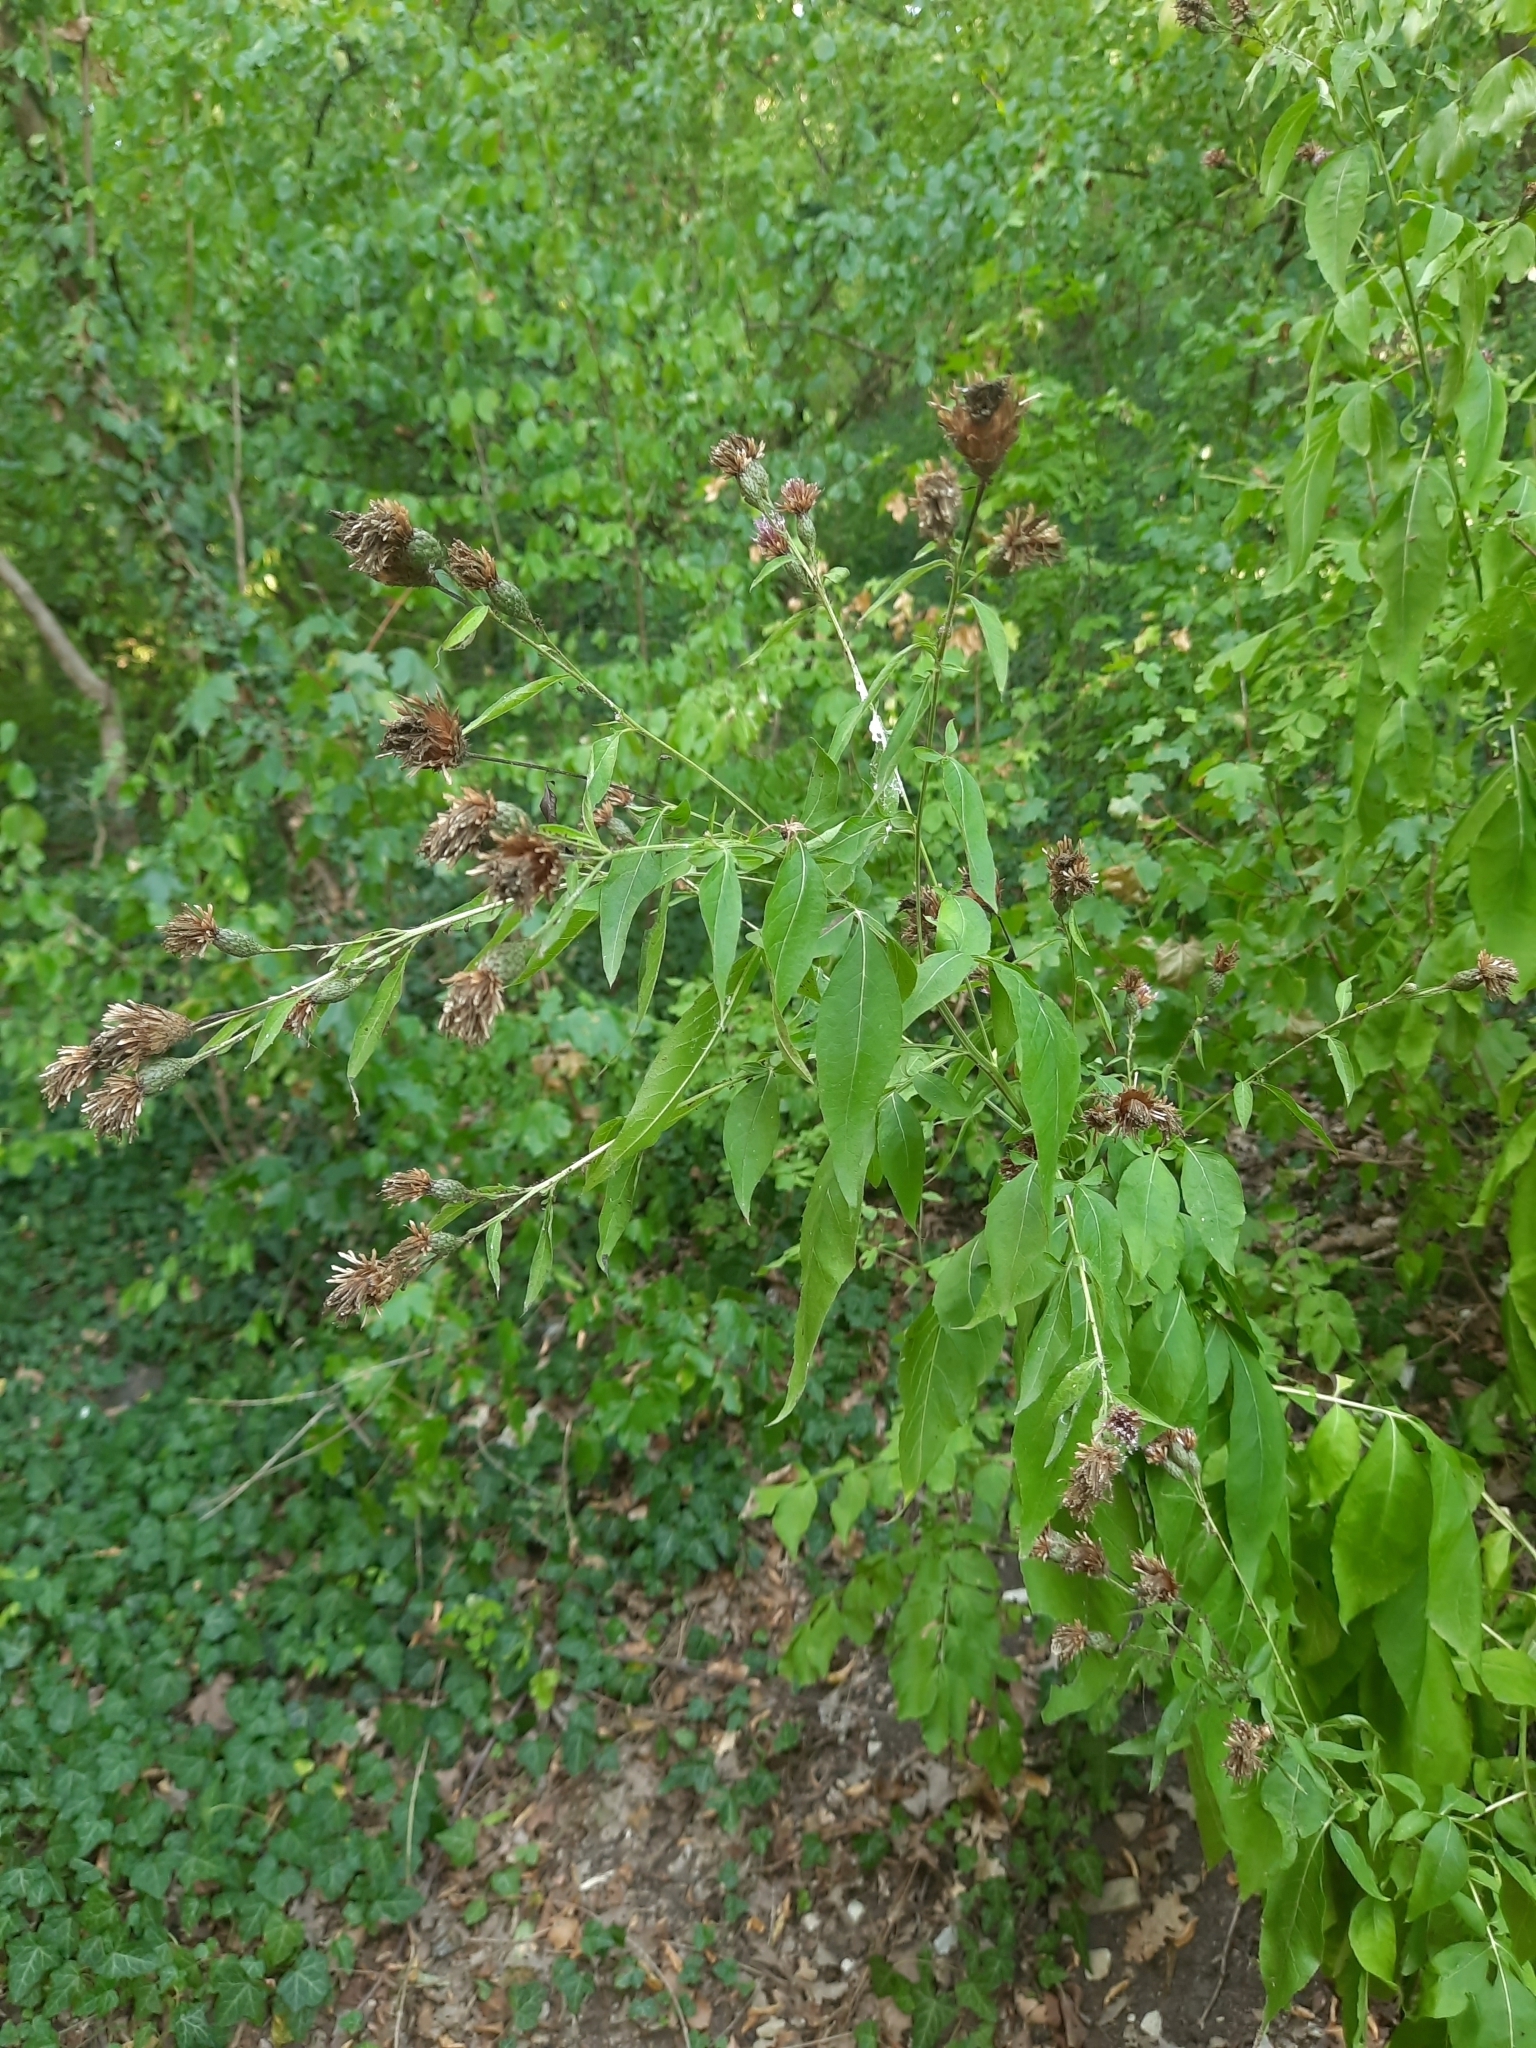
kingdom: Plantae
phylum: Tracheophyta
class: Magnoliopsida
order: Asterales
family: Asteraceae
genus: Klasea
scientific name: Klasea quinquefolia
